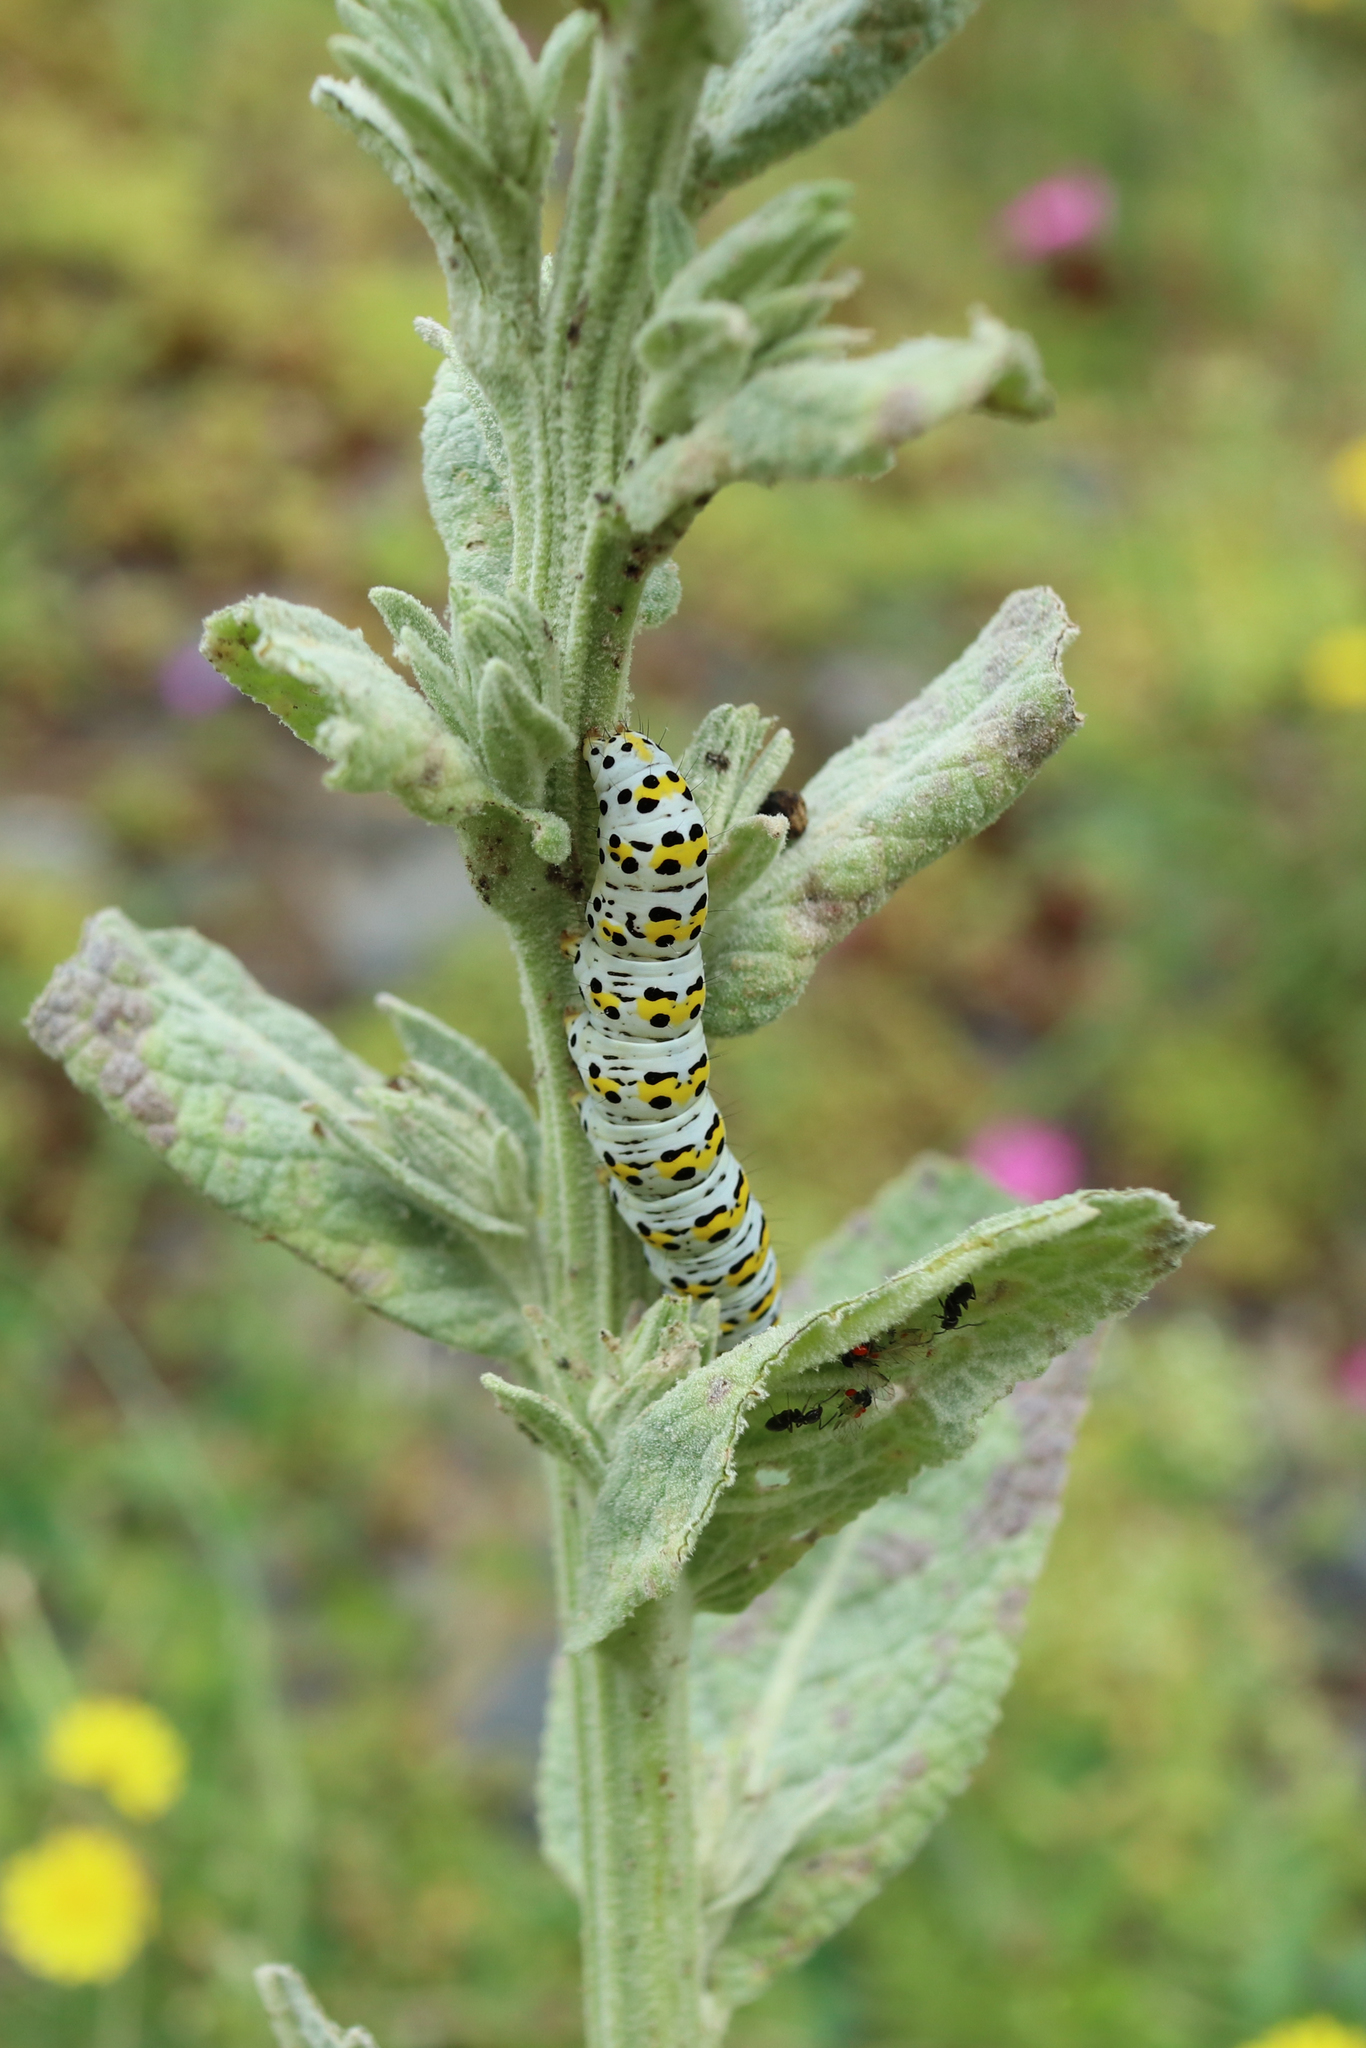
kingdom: Animalia
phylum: Arthropoda
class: Insecta
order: Lepidoptera
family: Noctuidae
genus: Cucullia
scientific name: Cucullia verbasci
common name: Mullein
